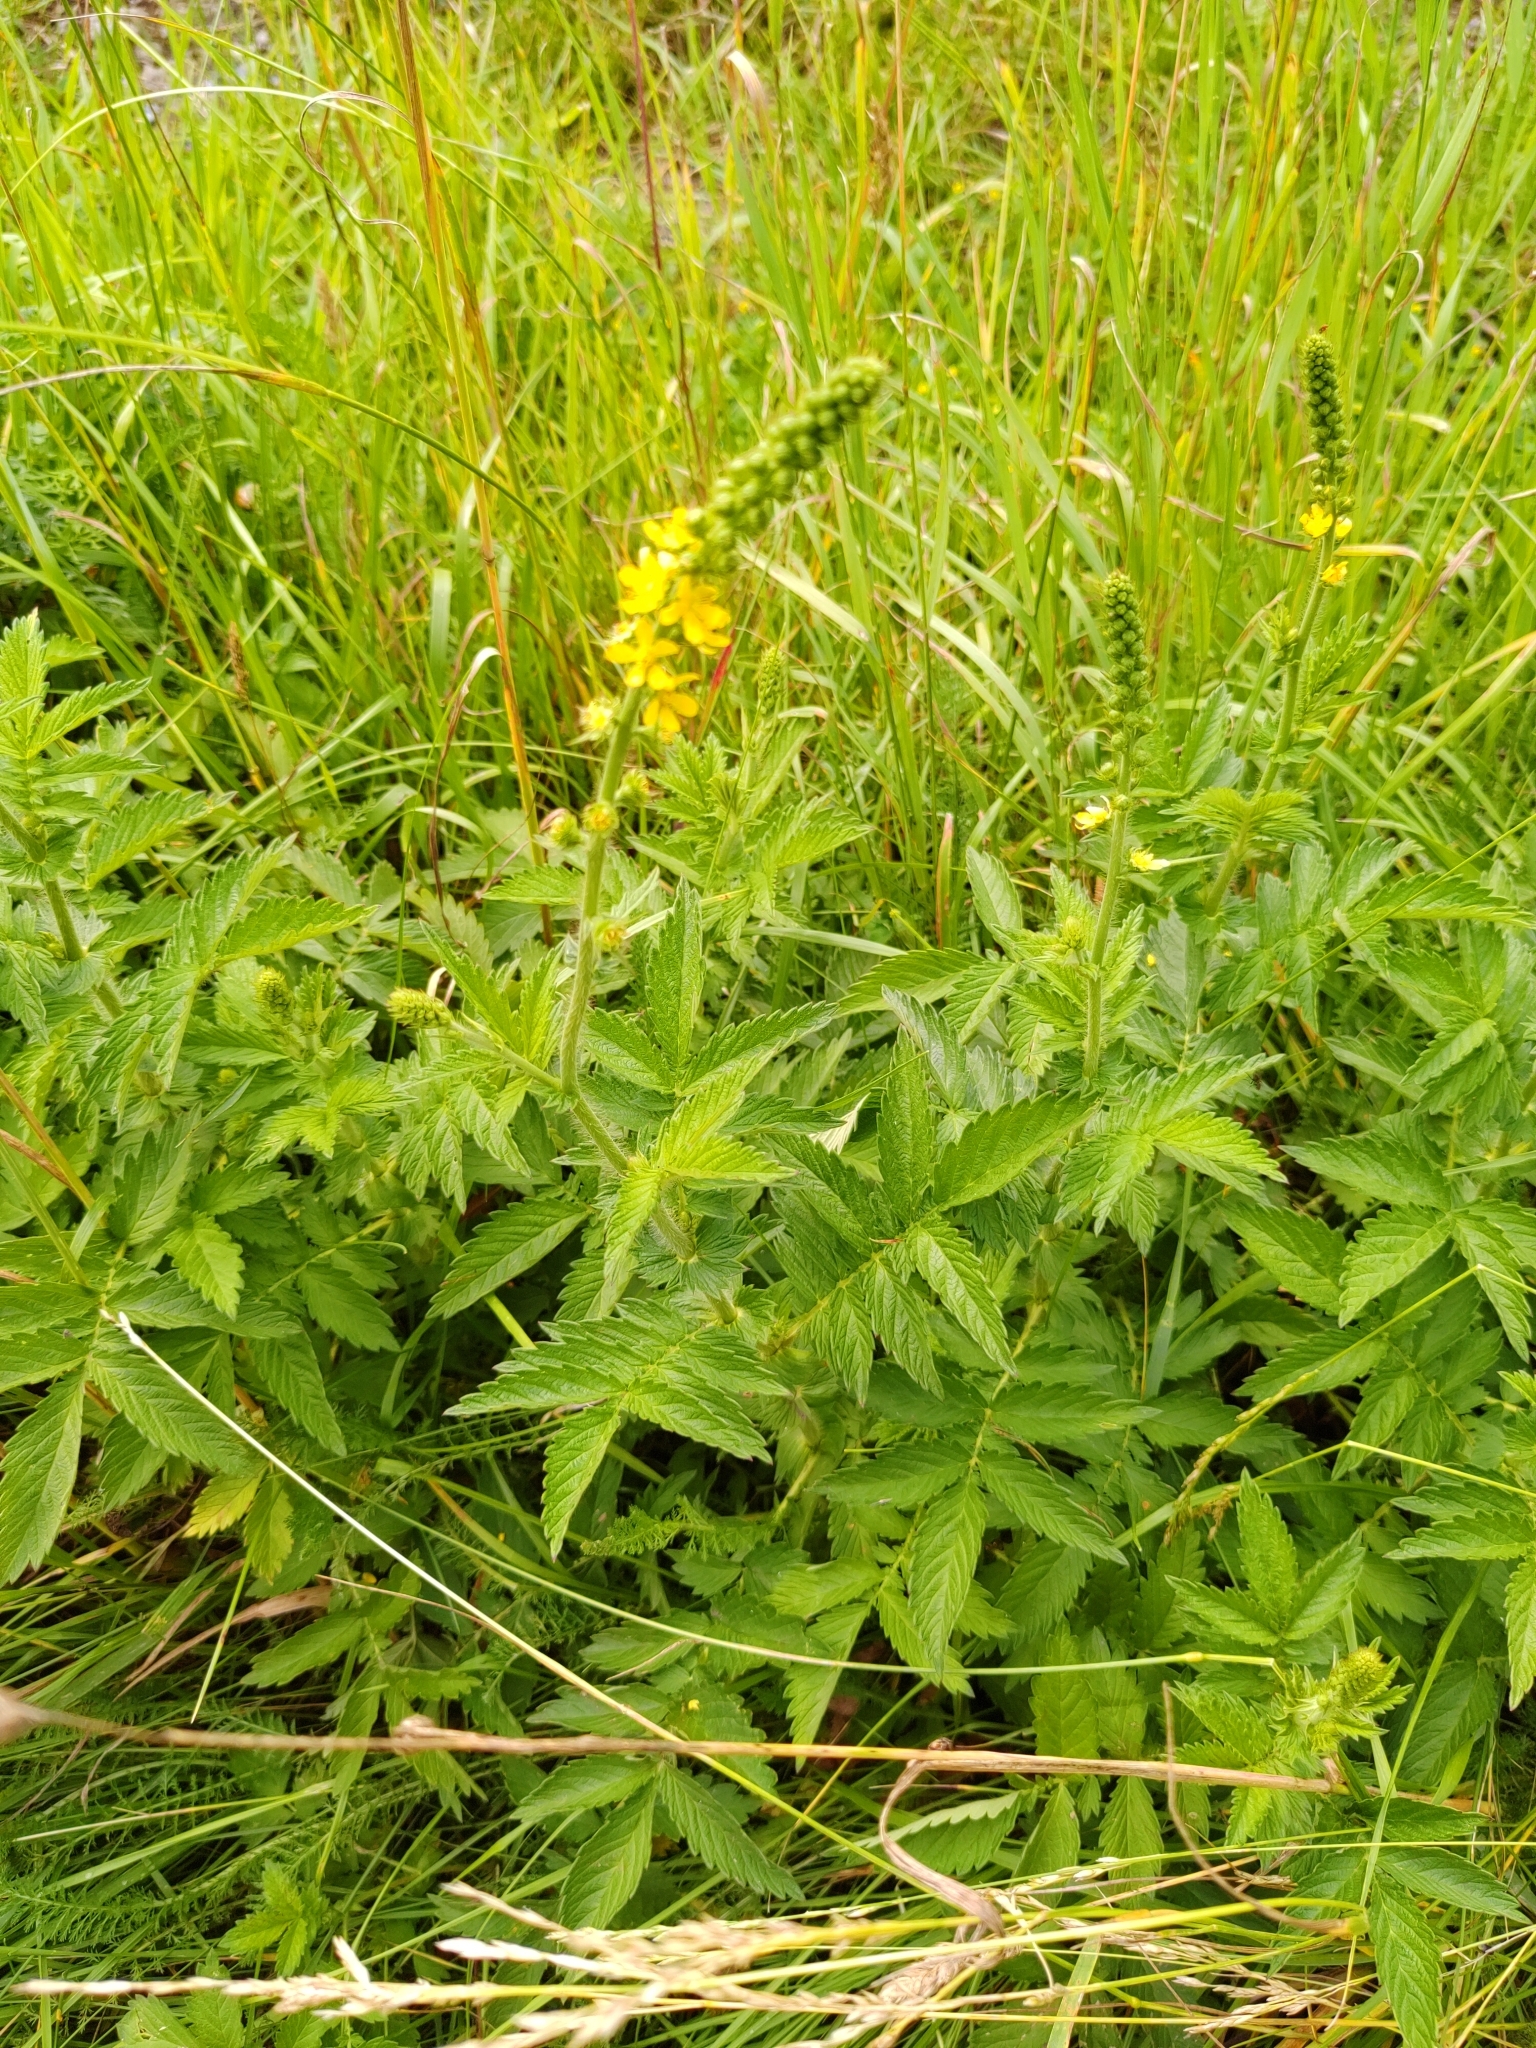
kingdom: Plantae
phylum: Tracheophyta
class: Magnoliopsida
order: Rosales
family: Rosaceae
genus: Agrimonia
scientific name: Agrimonia eupatoria
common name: Agrimony
